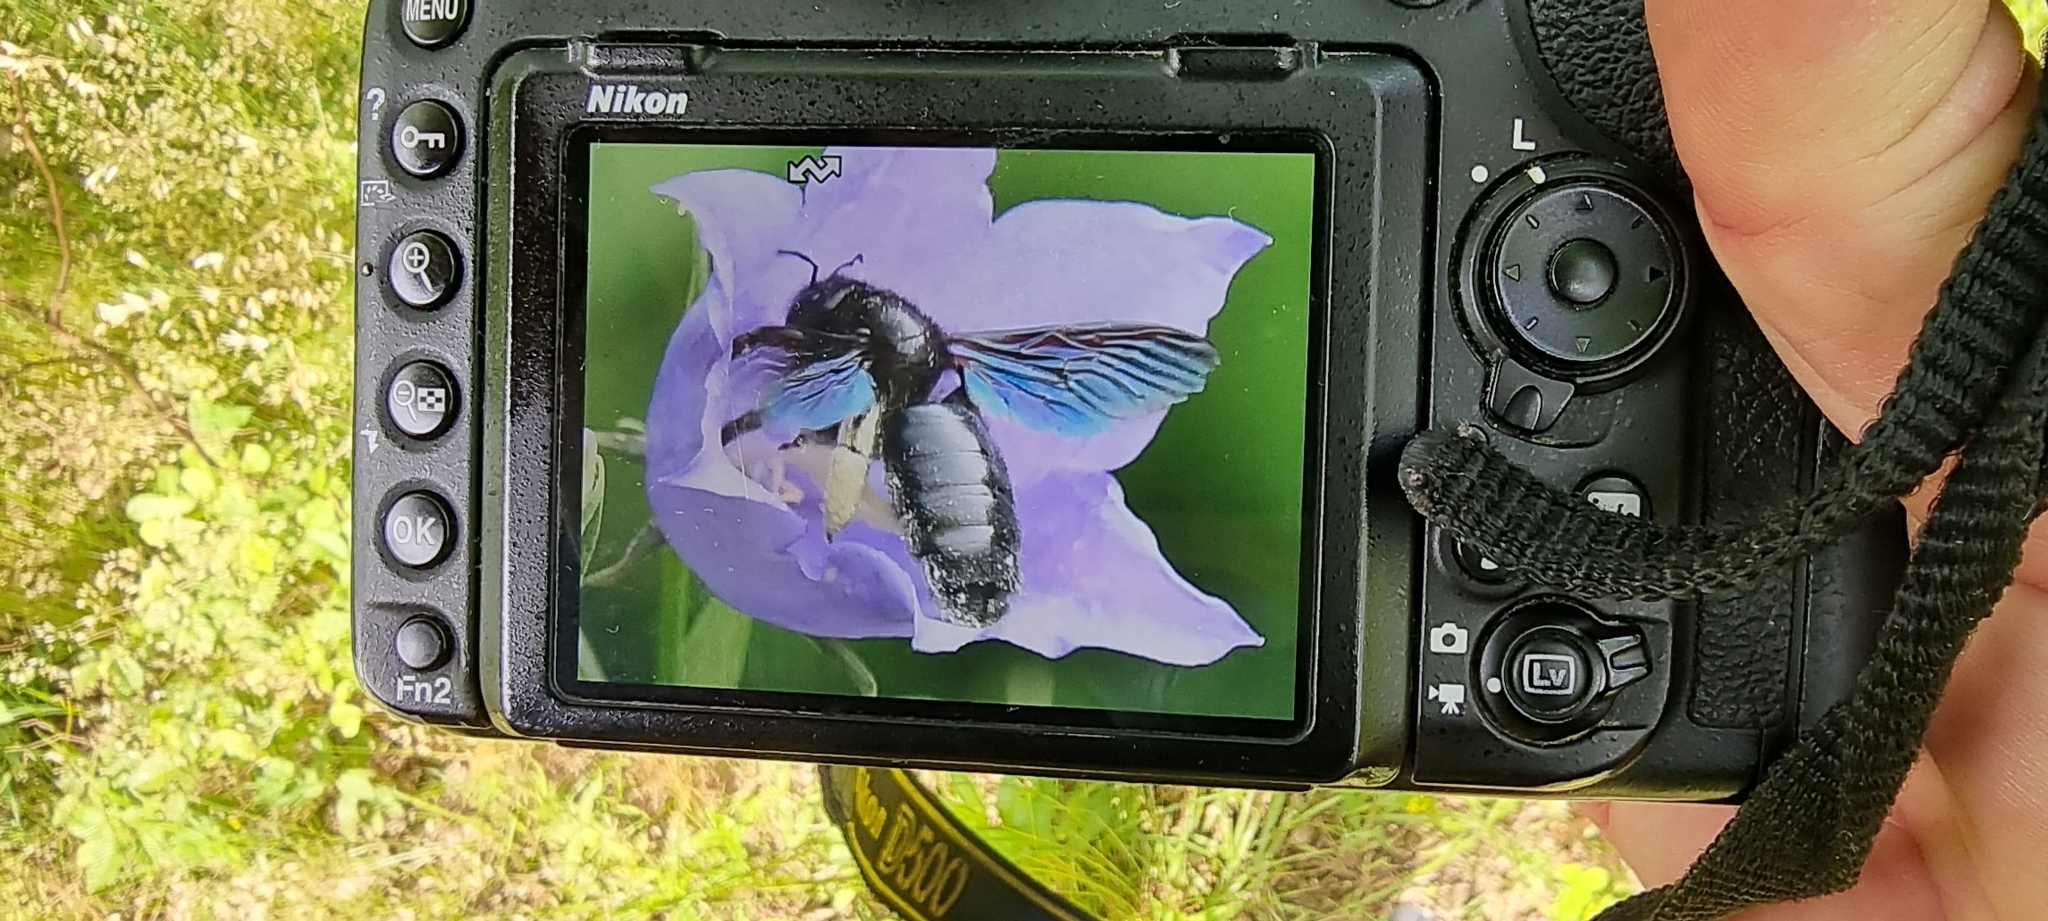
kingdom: Animalia
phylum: Arthropoda
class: Insecta
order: Hymenoptera
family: Apidae
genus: Xylocopa
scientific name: Xylocopa violacea
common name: Violet carpenter bee
